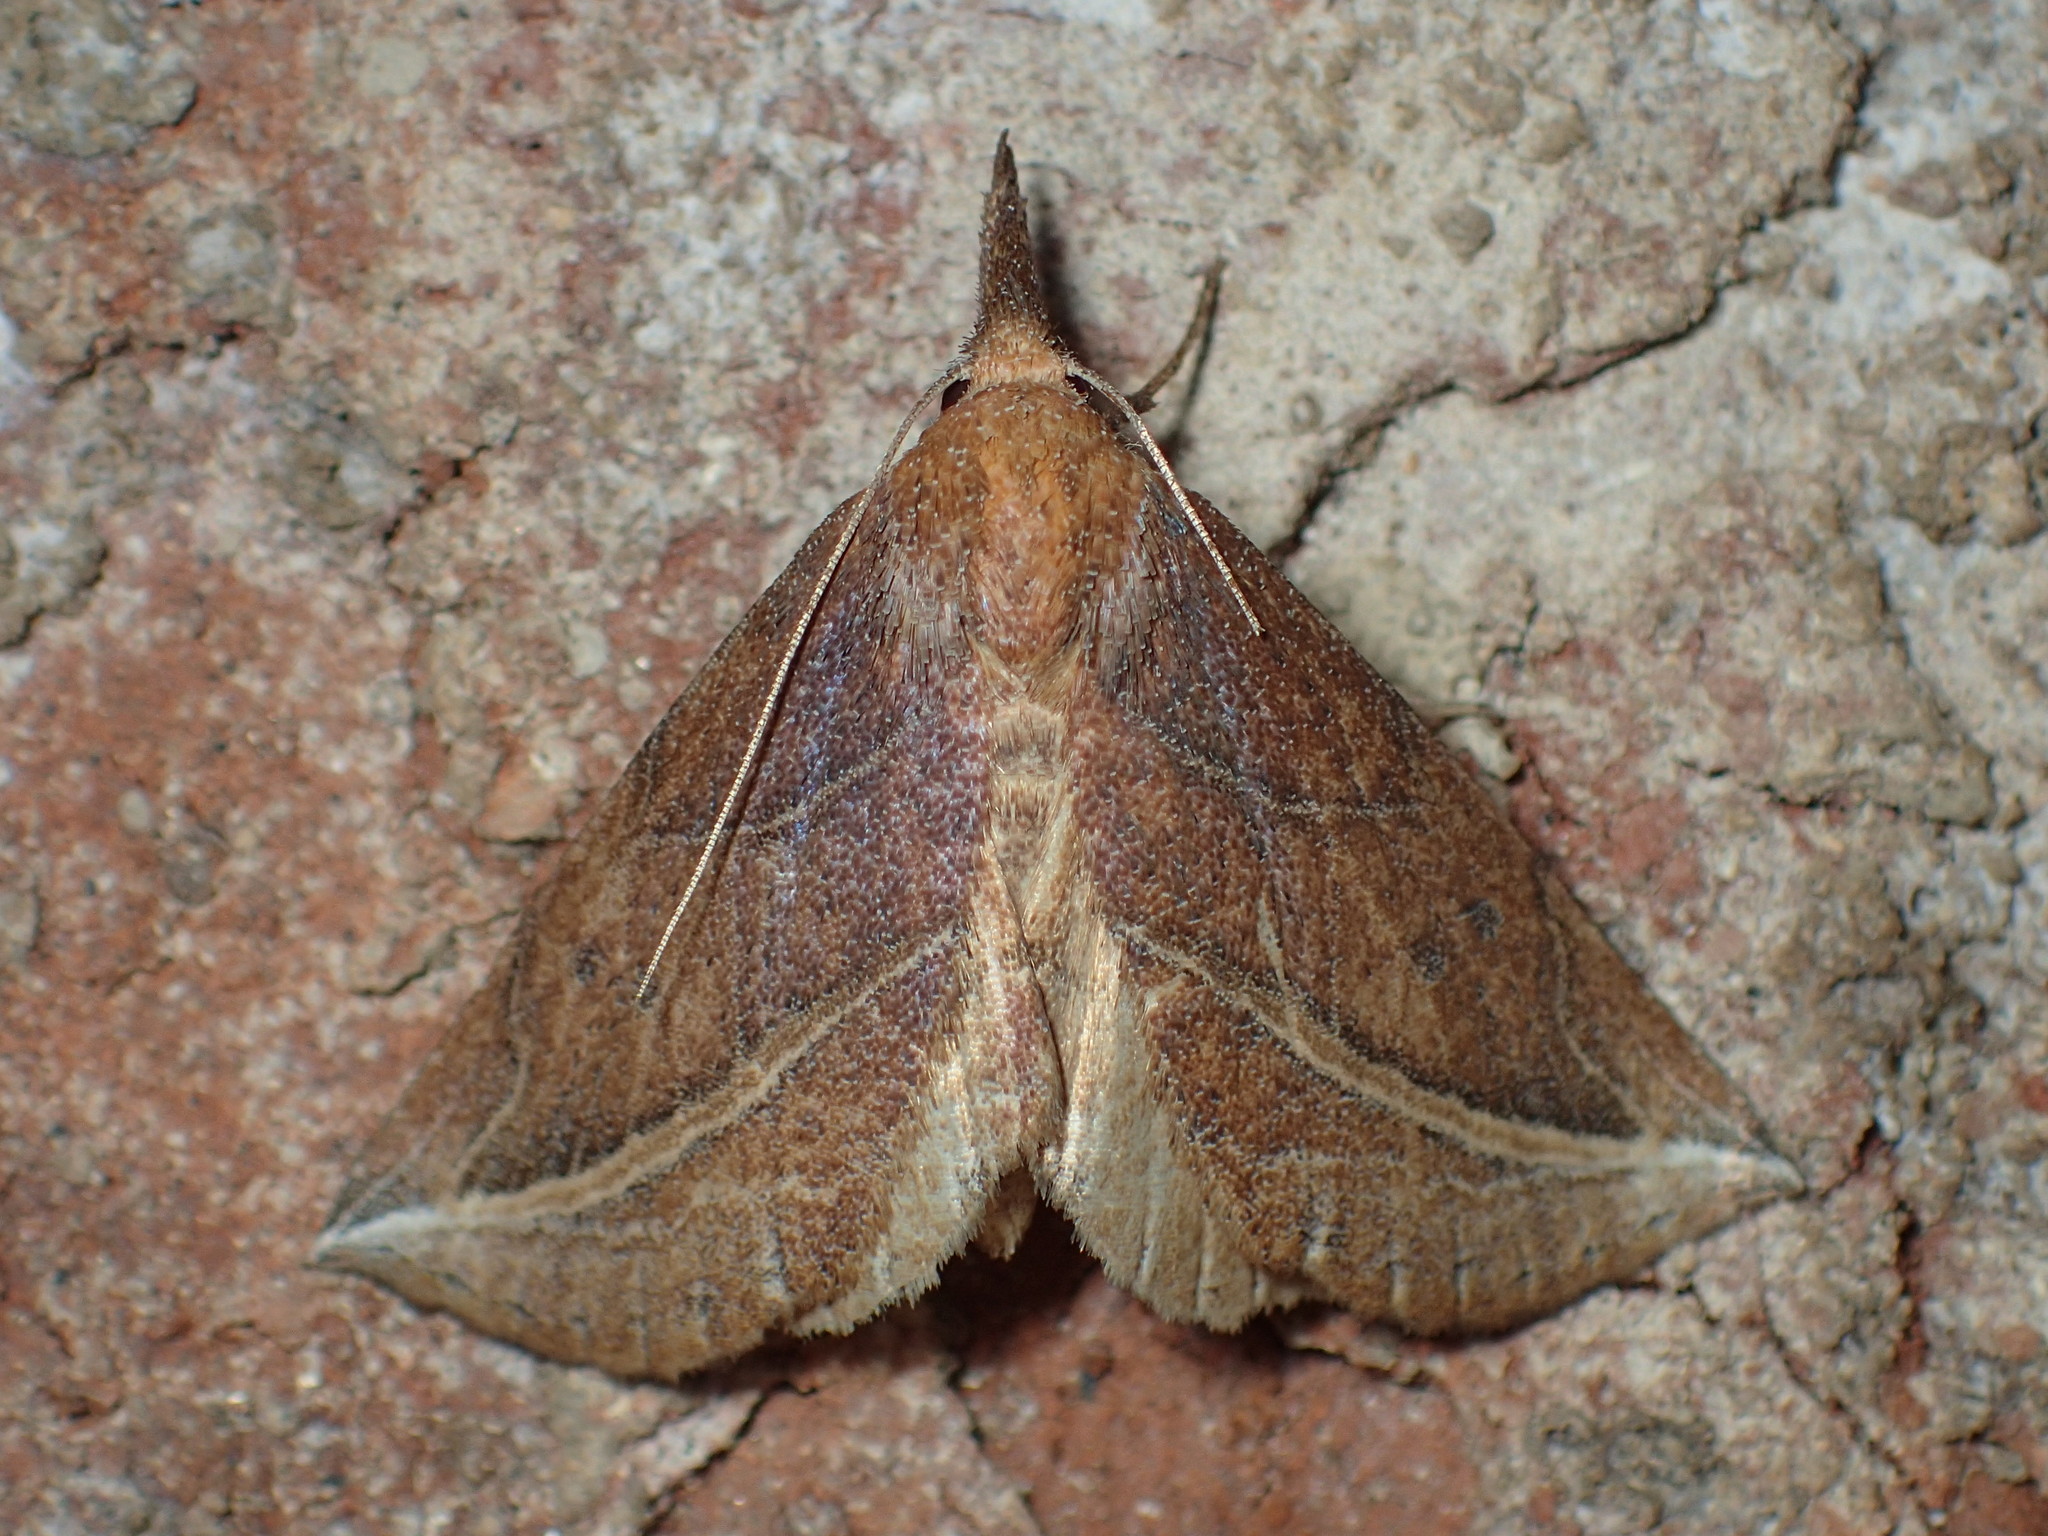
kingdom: Animalia
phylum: Arthropoda
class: Insecta
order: Lepidoptera
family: Erebidae
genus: Phyprosopus
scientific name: Phyprosopus callitrichoides
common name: Curved-lined owlet
